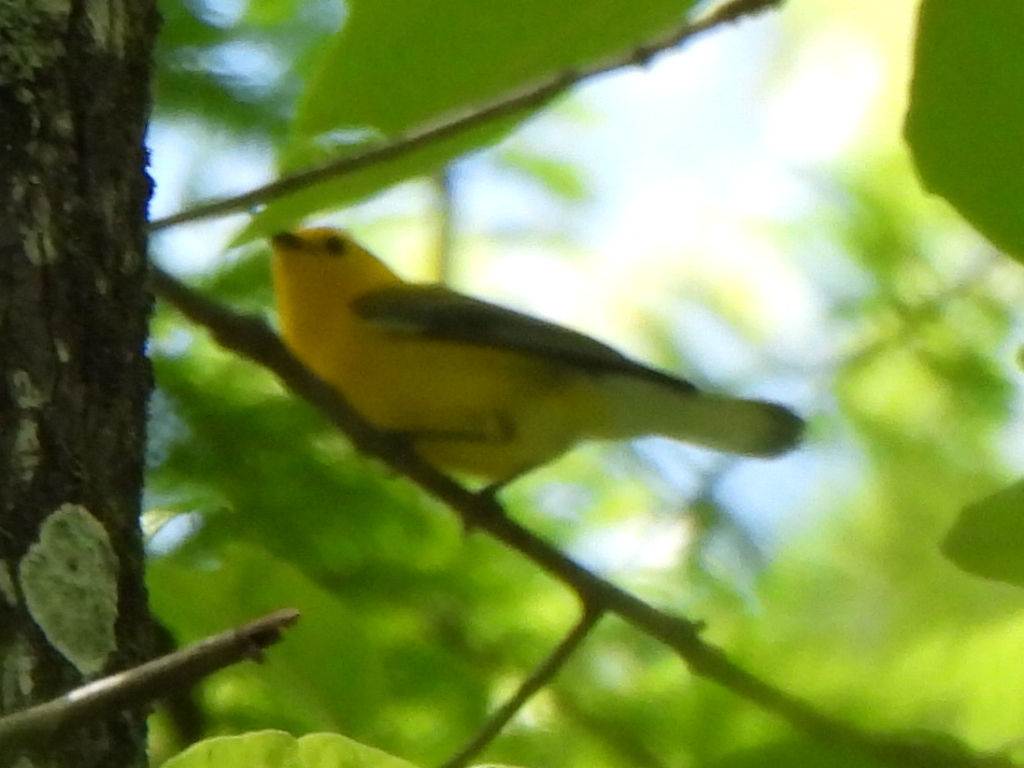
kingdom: Animalia
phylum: Chordata
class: Aves
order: Passeriformes
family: Parulidae
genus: Protonotaria
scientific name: Protonotaria citrea
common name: Prothonotary warbler
